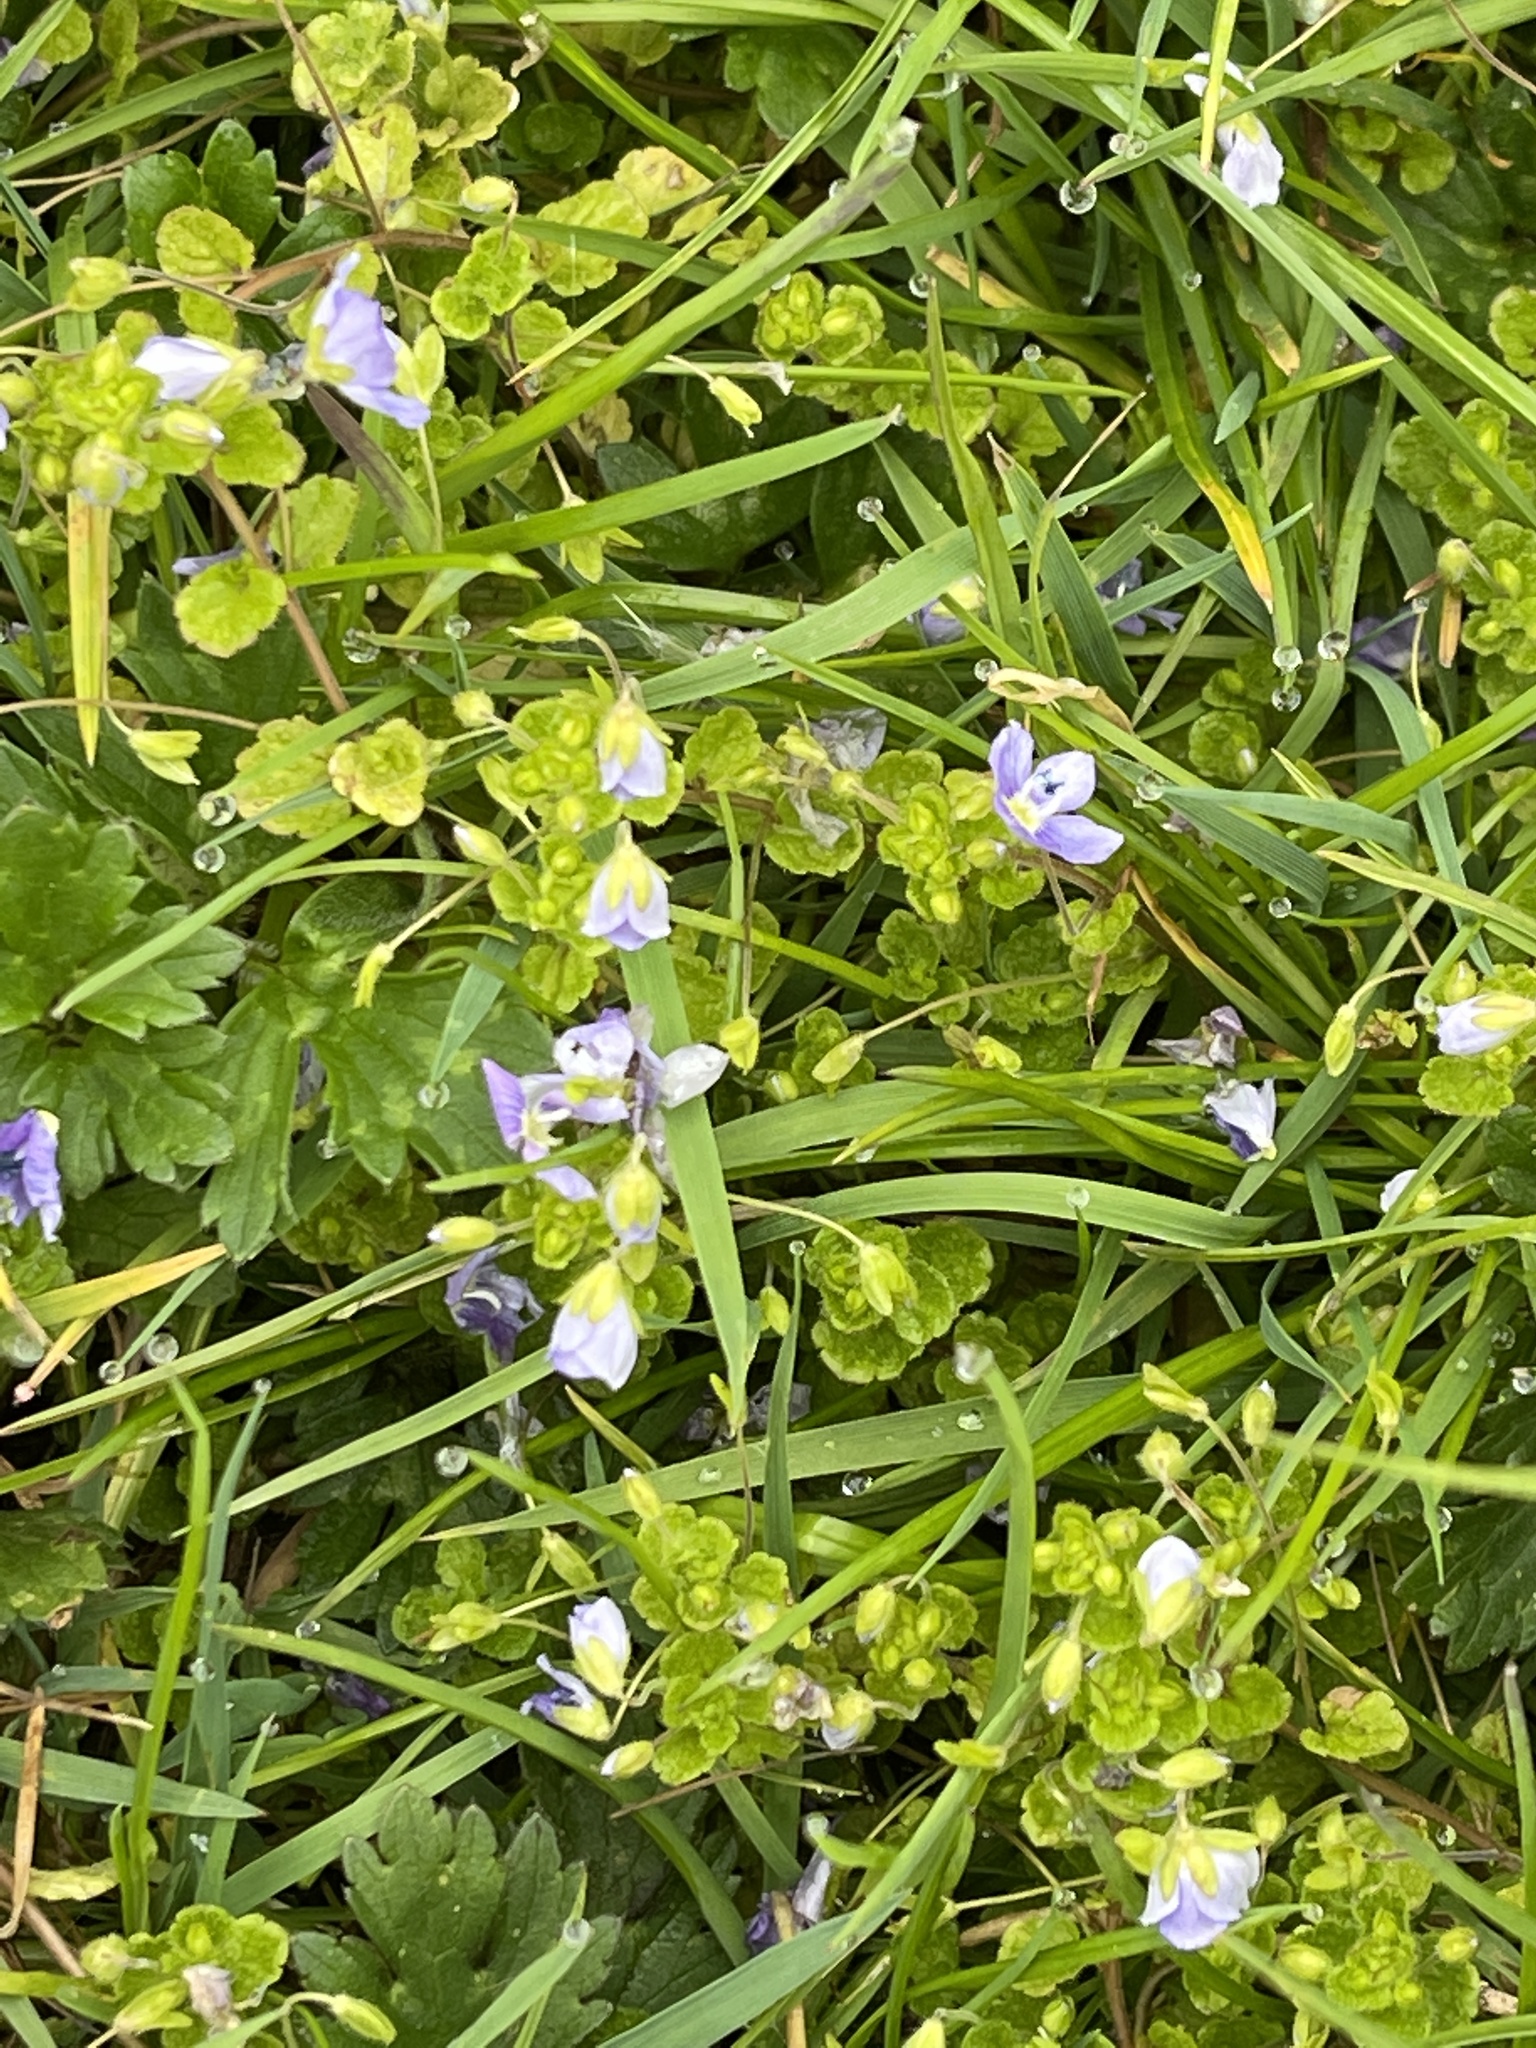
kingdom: Plantae
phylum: Tracheophyta
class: Magnoliopsida
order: Lamiales
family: Plantaginaceae
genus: Veronica
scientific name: Veronica filiformis
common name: Slender speedwell
